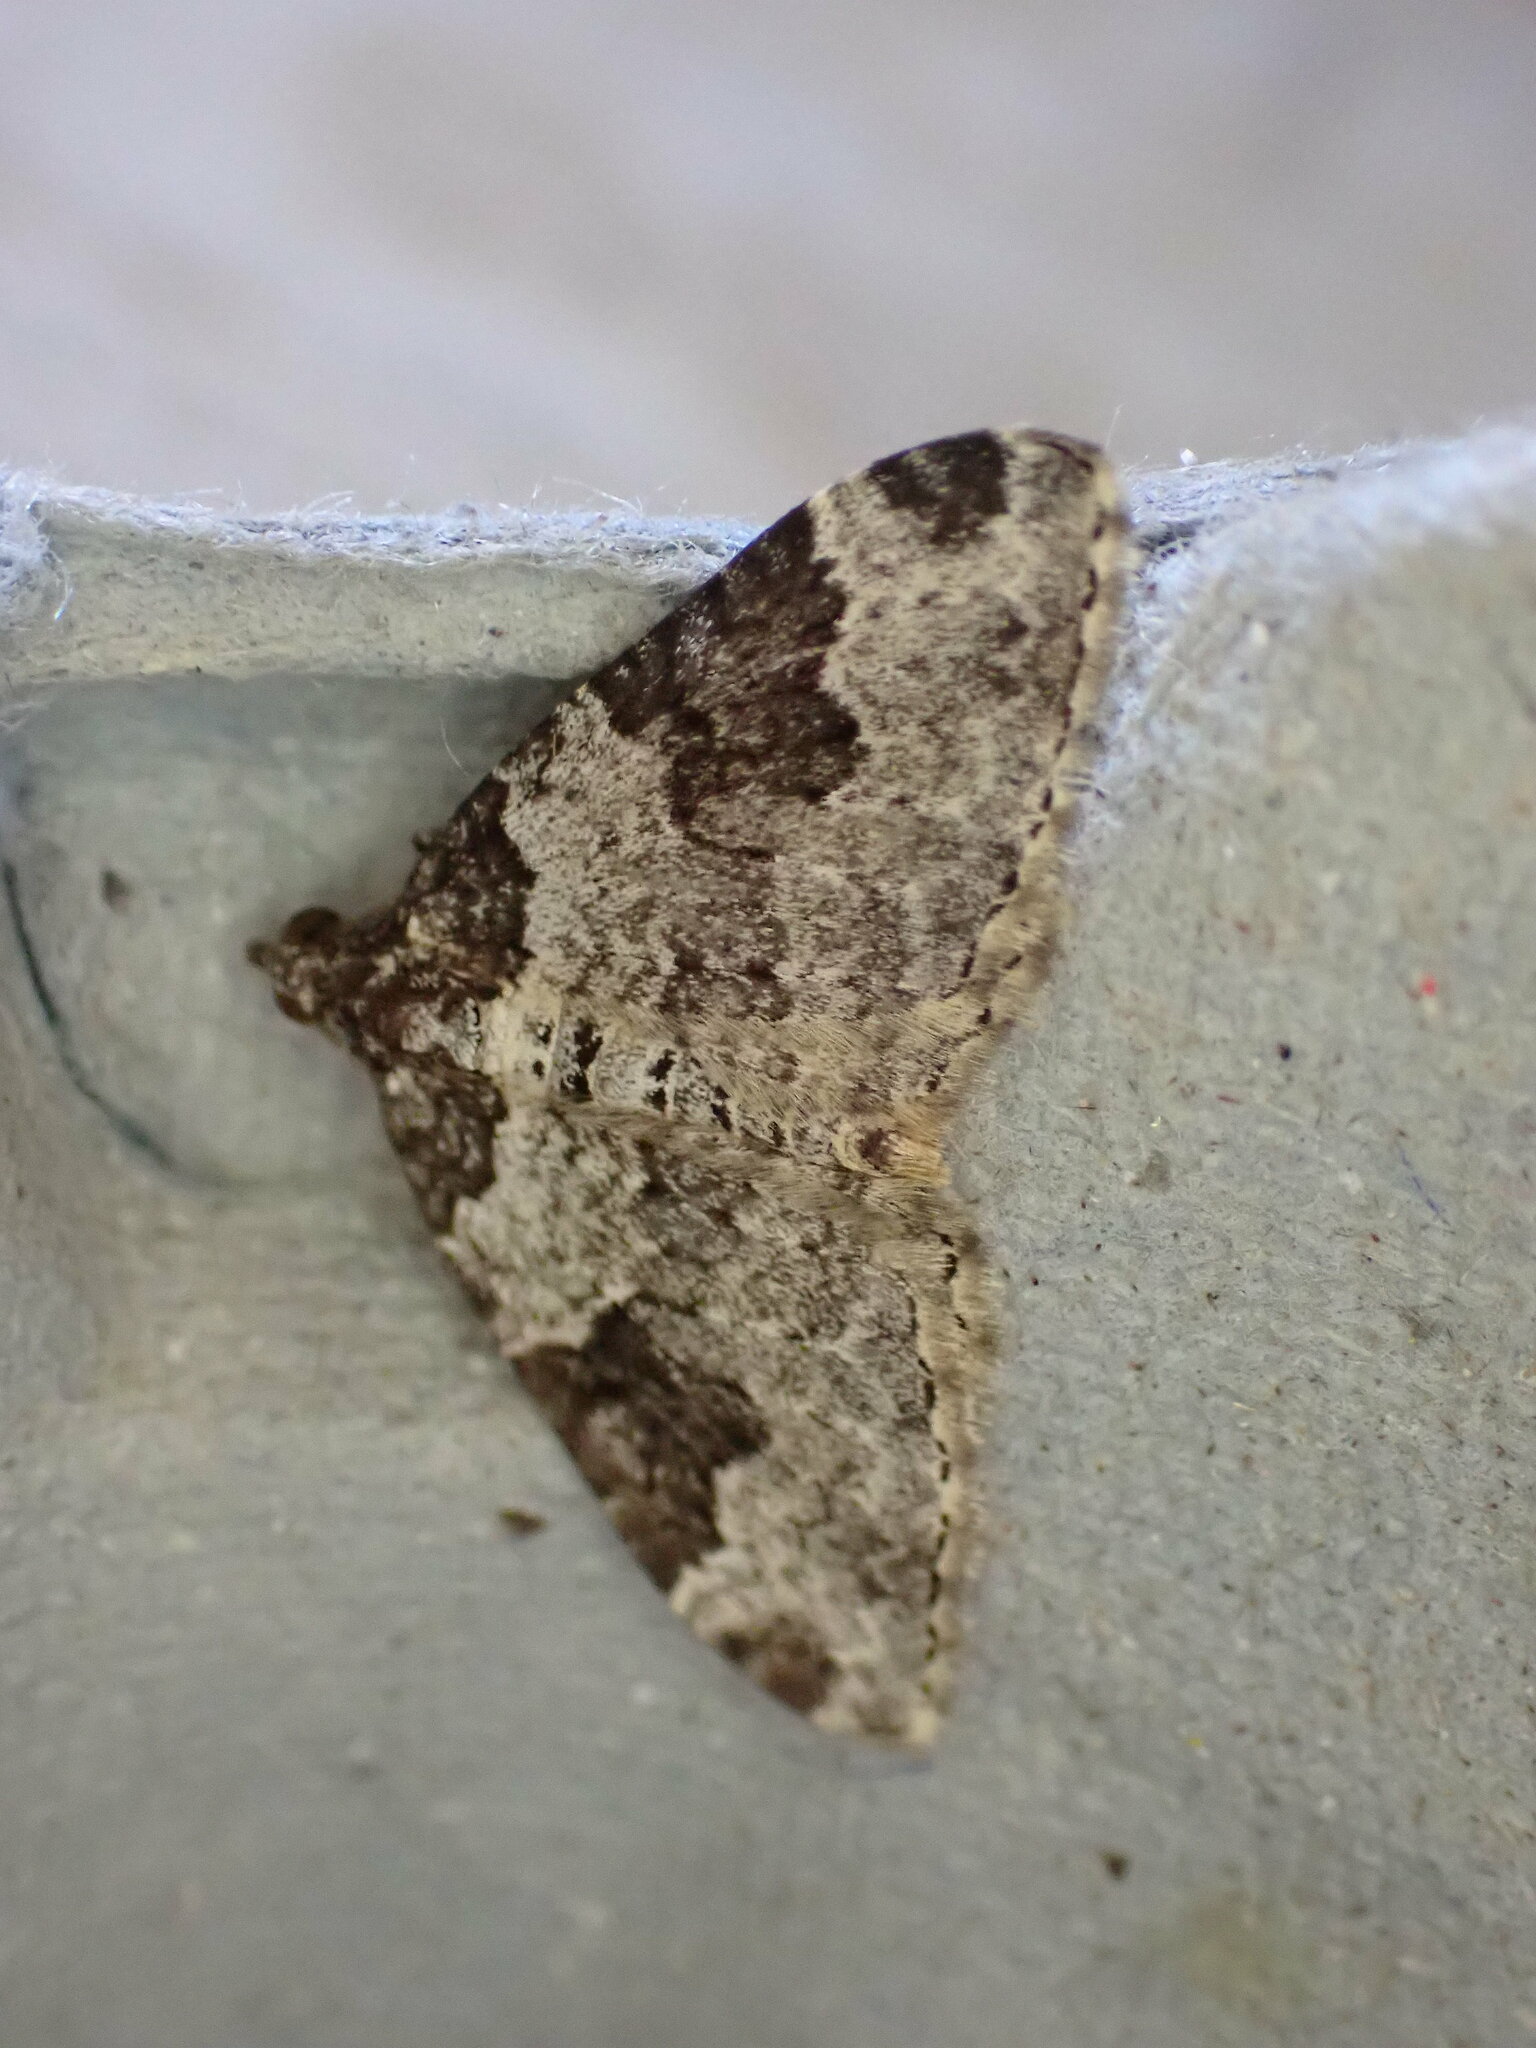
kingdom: Animalia
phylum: Arthropoda
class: Insecta
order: Lepidoptera
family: Geometridae
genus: Xanthorhoe
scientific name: Xanthorhoe fluctuata
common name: Garden carpet
